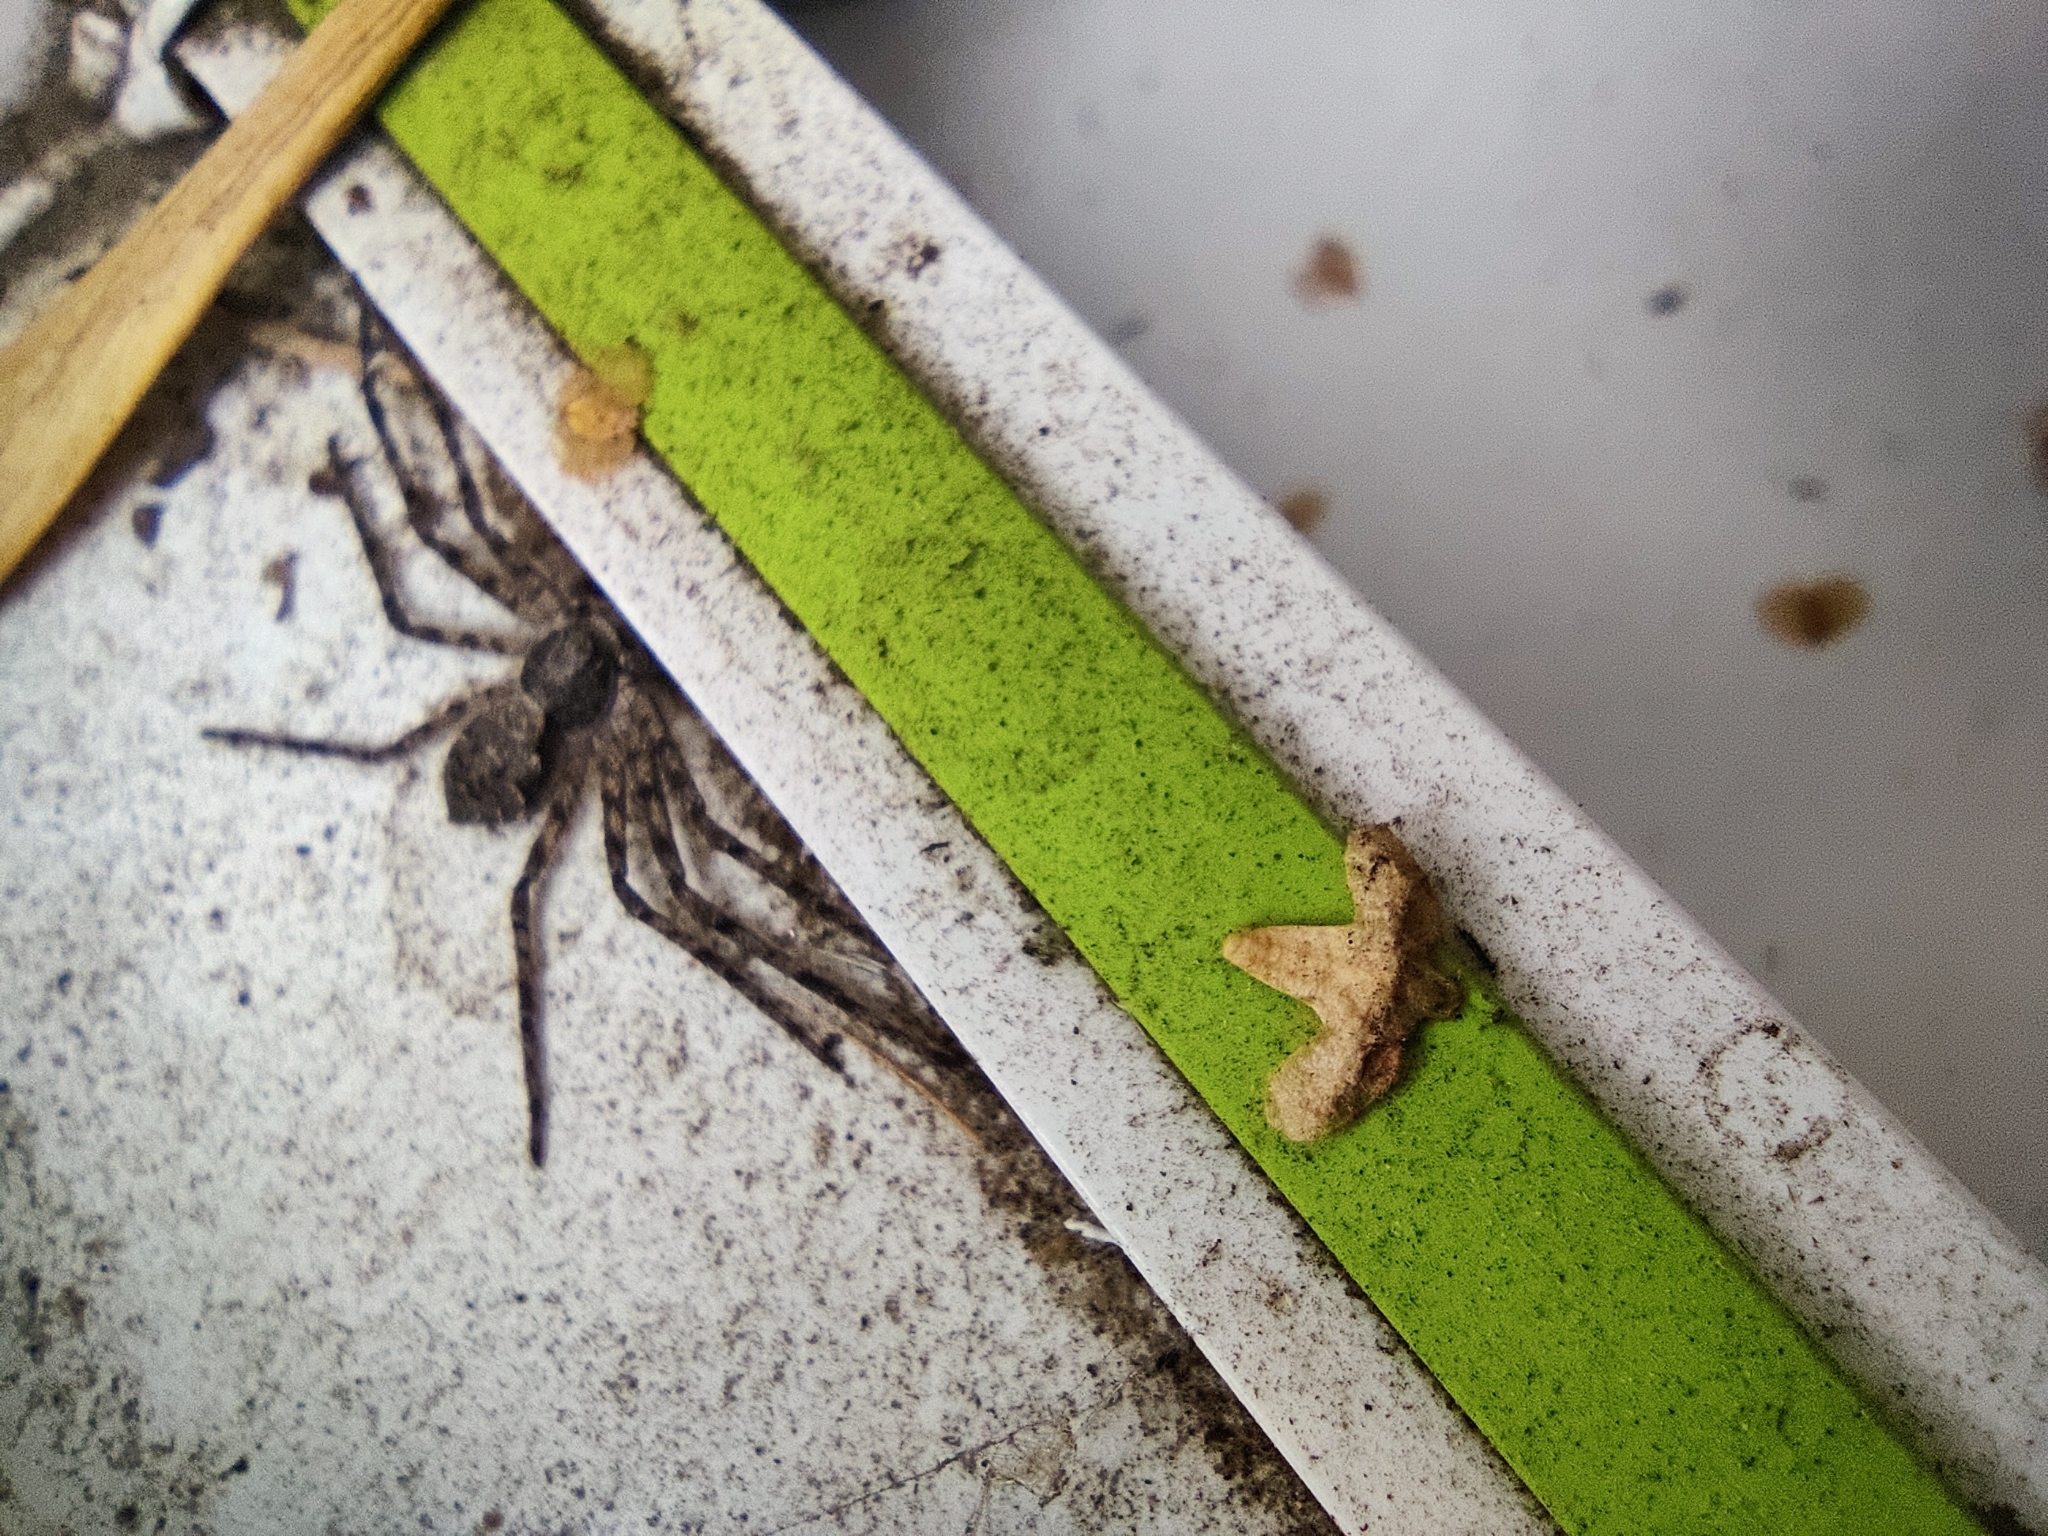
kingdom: Animalia
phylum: Arthropoda
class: Arachnida
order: Araneae
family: Philodromidae
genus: Philodromus
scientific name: Philodromus margaritatus
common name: Lichen running-spider
